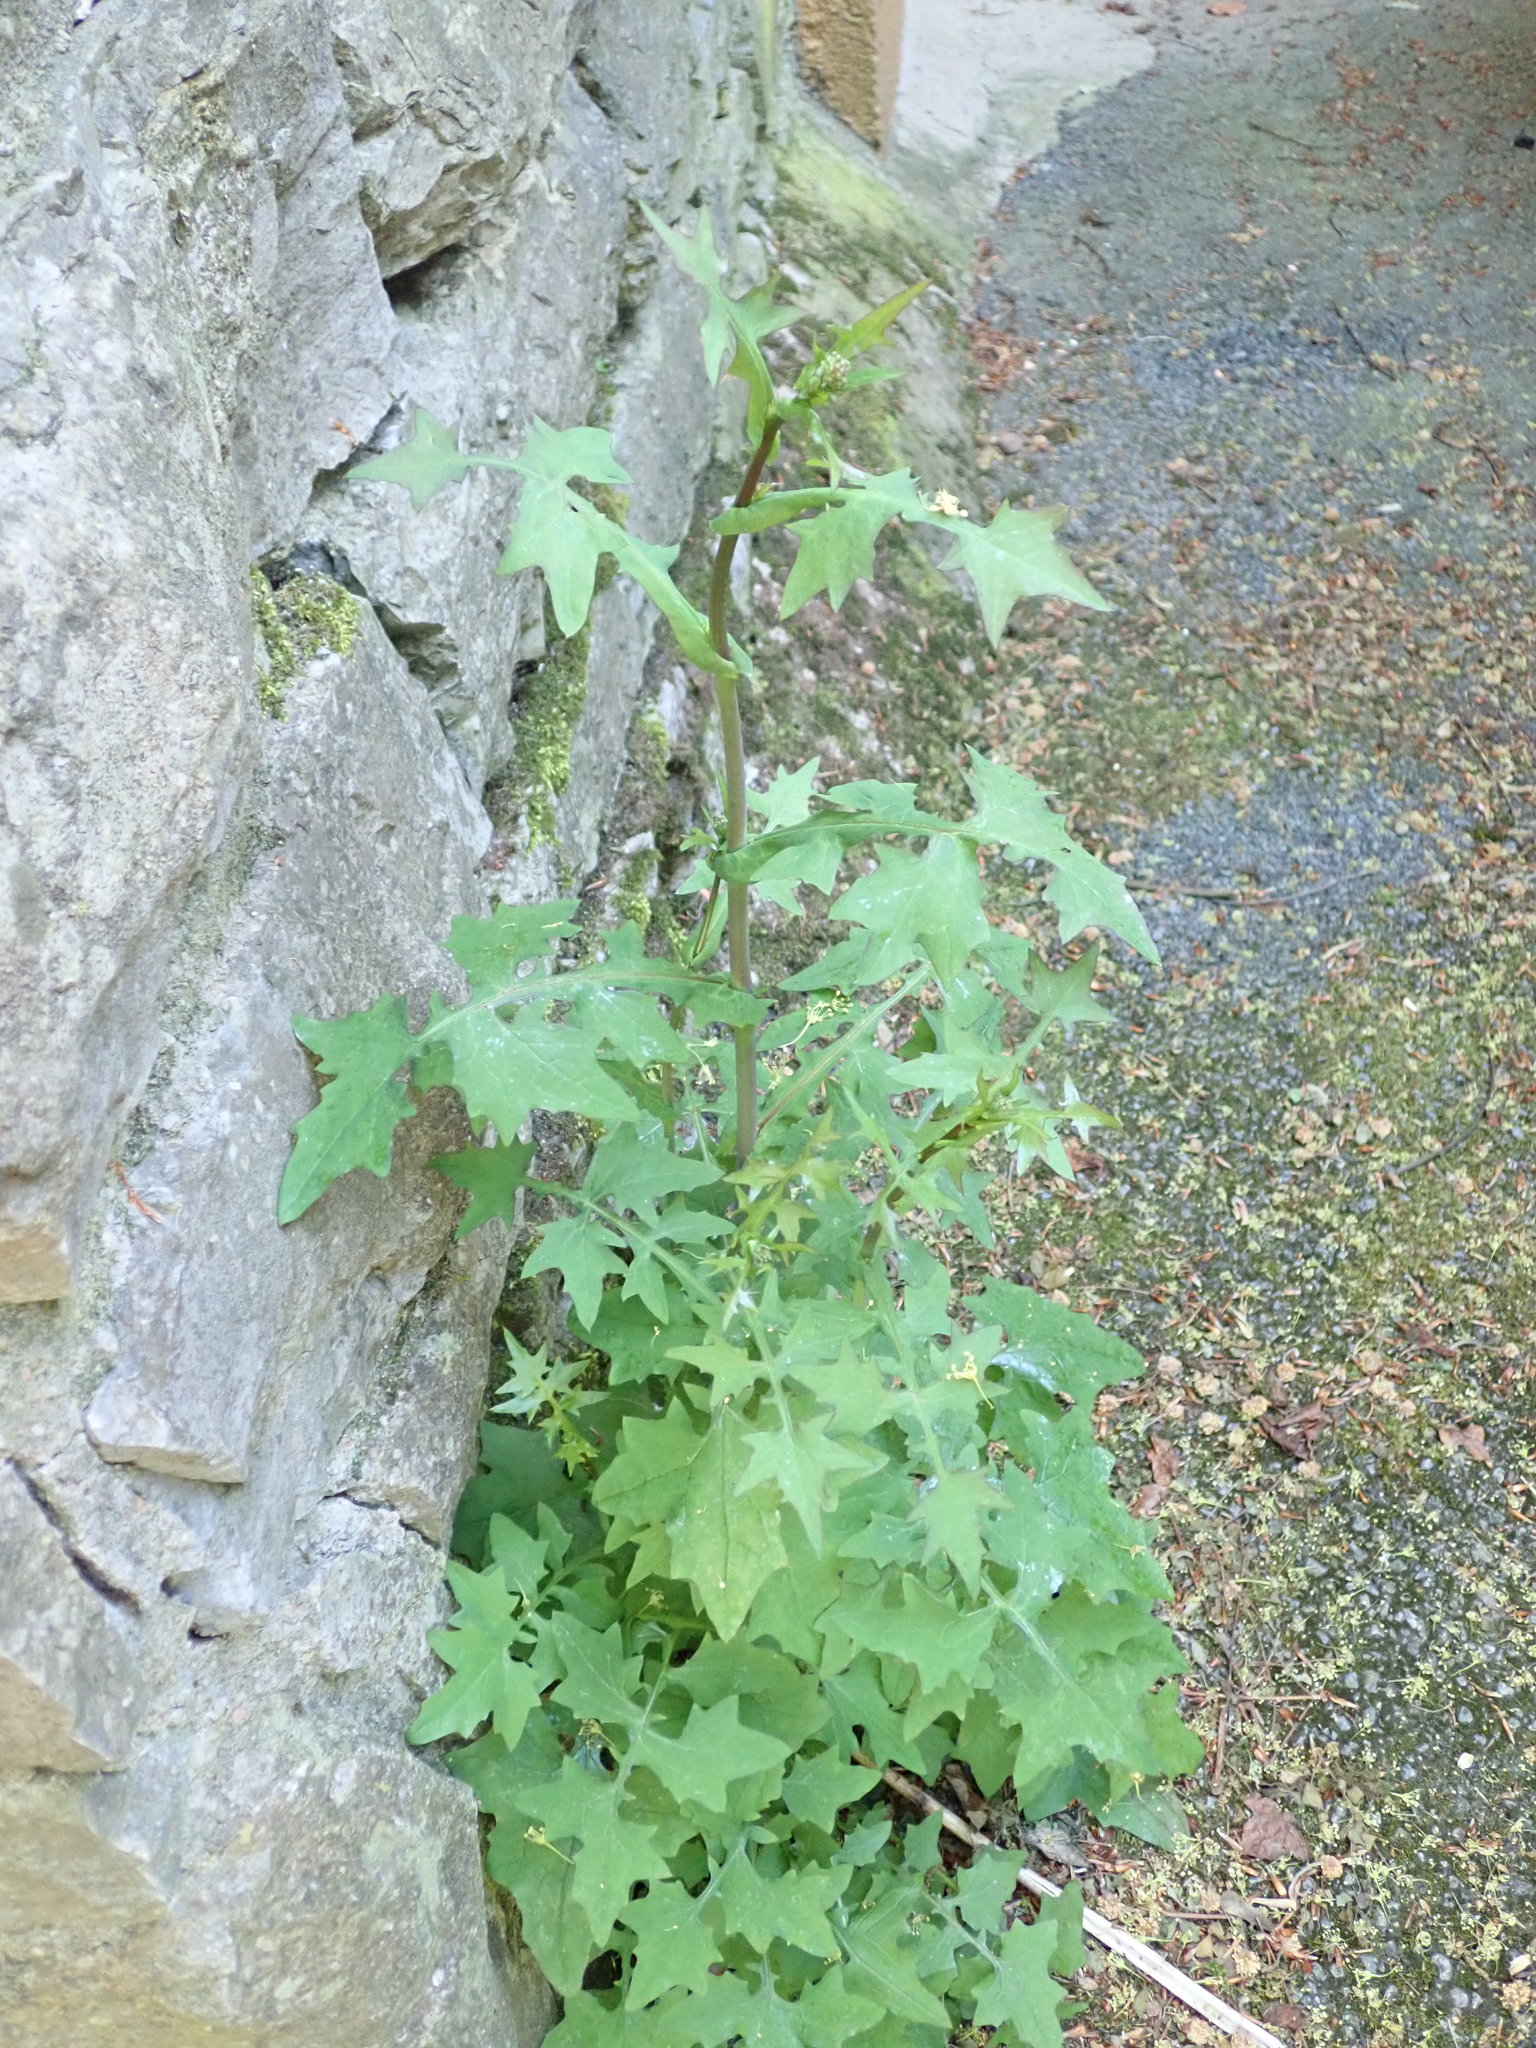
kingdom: Plantae
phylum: Tracheophyta
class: Magnoliopsida
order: Asterales
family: Asteraceae
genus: Mycelis
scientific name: Mycelis muralis
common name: Wall lettuce
